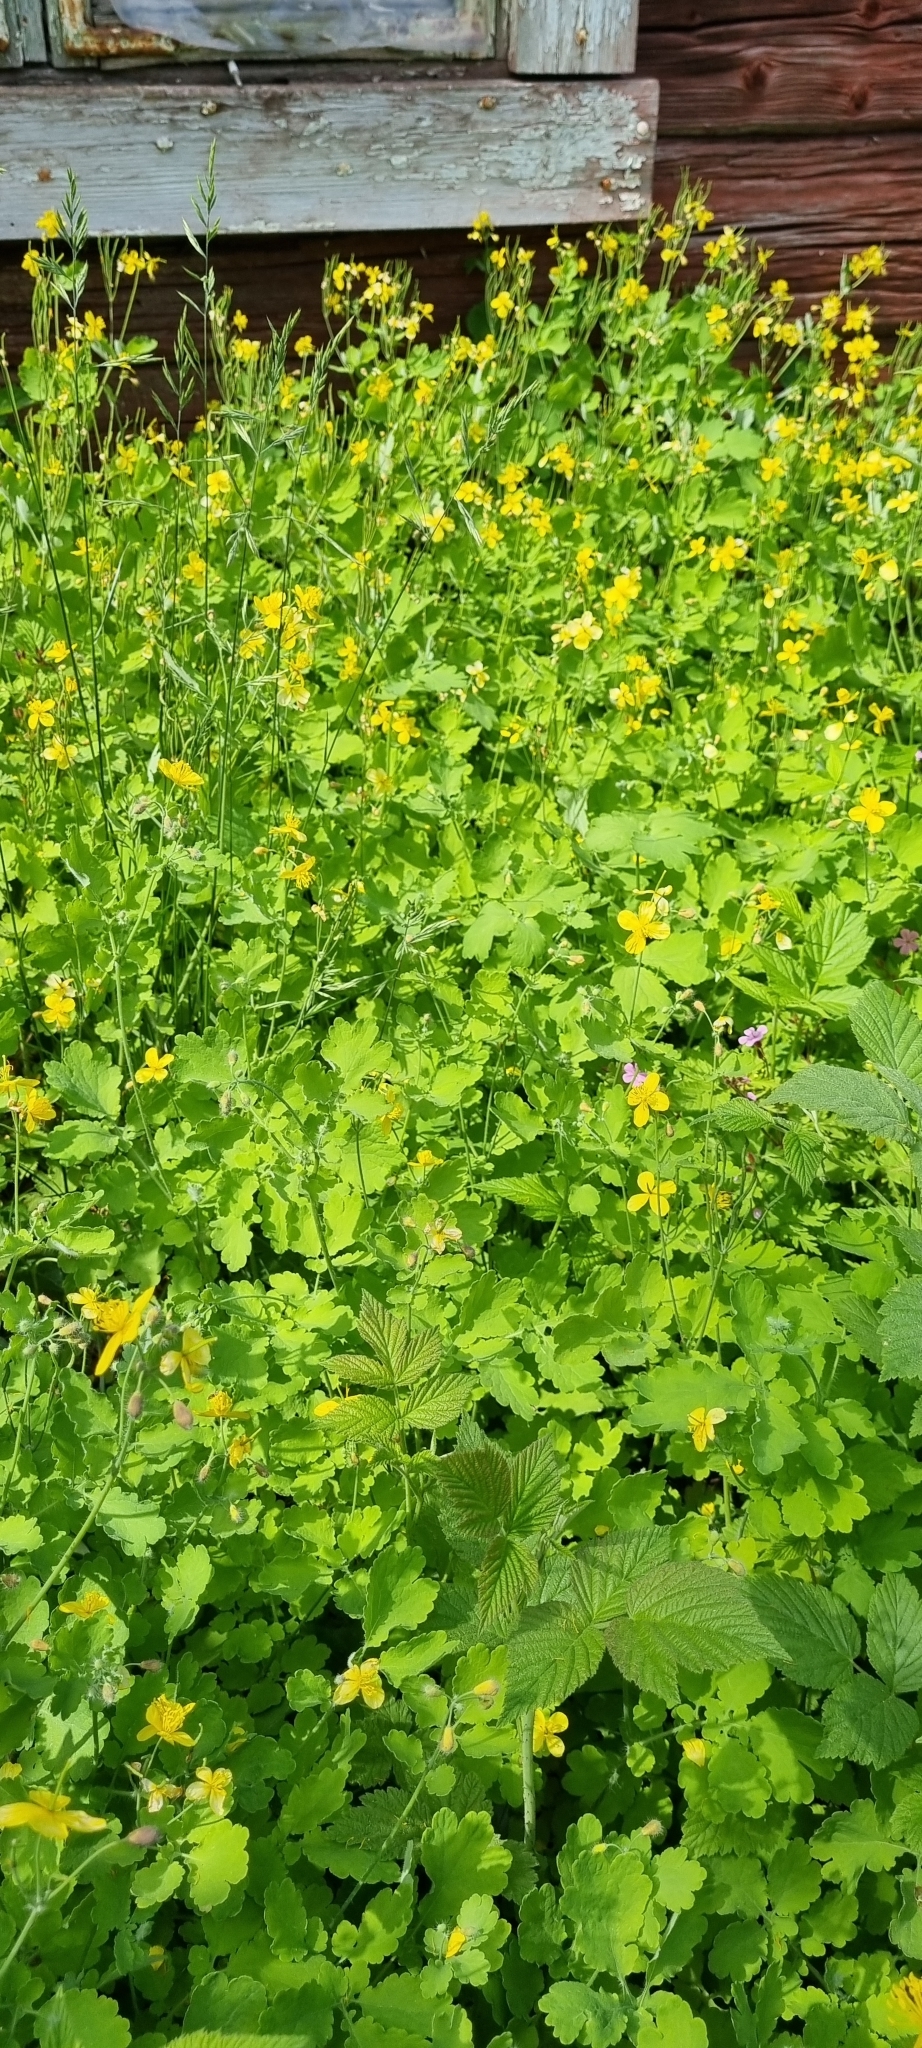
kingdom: Plantae
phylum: Tracheophyta
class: Magnoliopsida
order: Ranunculales
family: Papaveraceae
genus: Chelidonium
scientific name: Chelidonium majus
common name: Greater celandine
